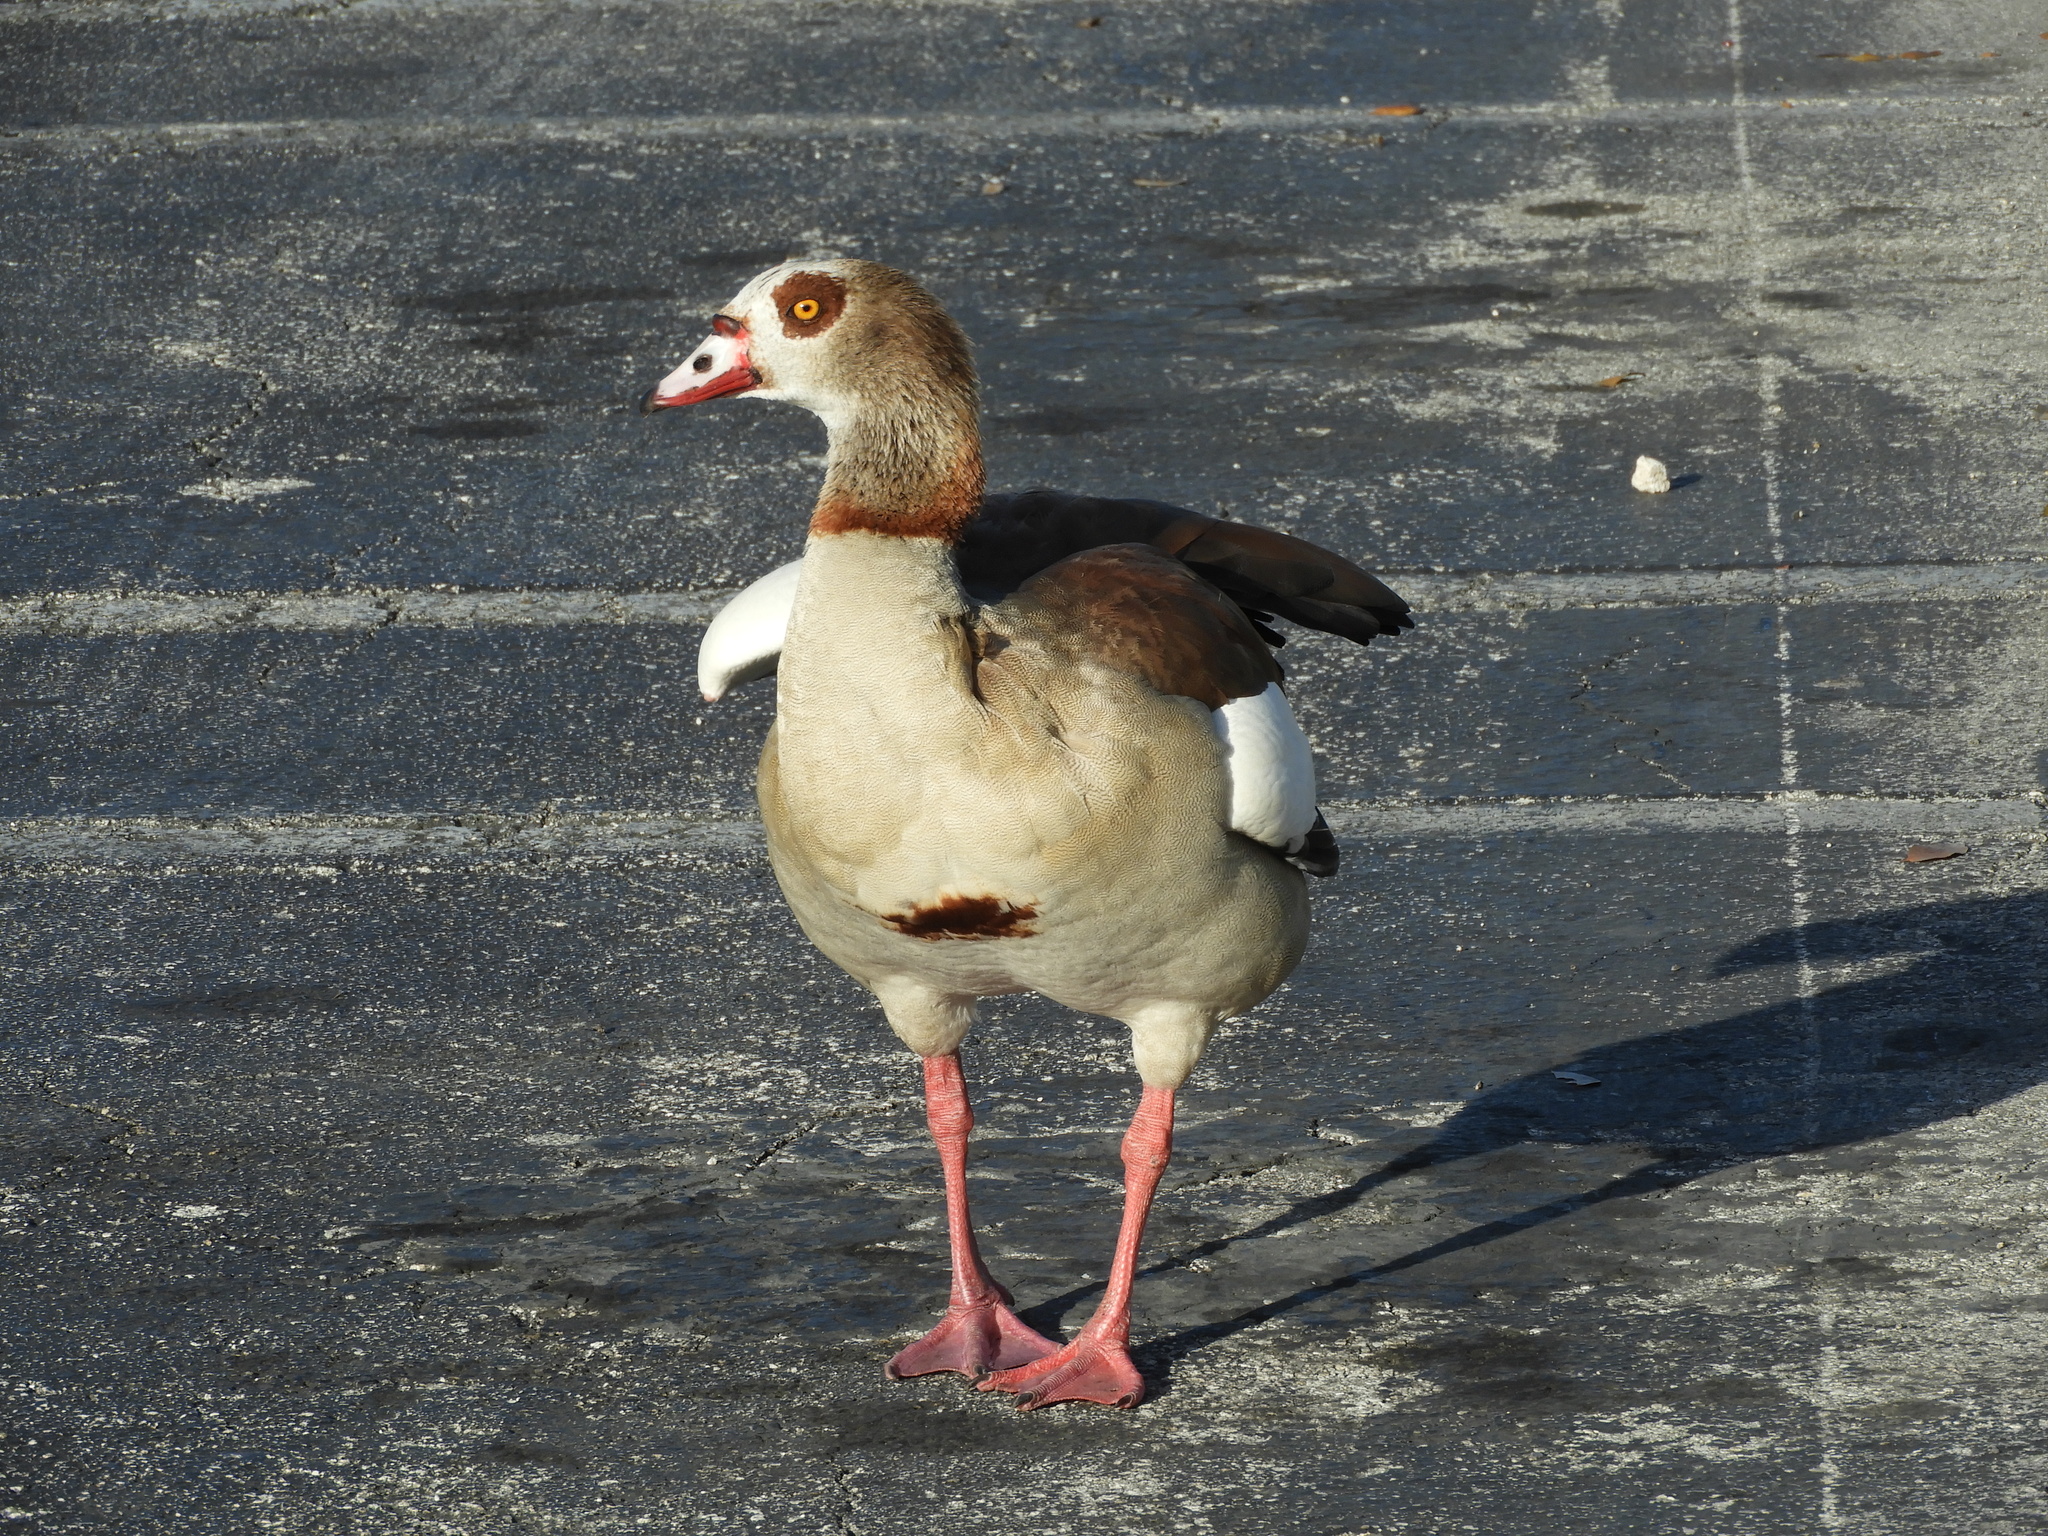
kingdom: Animalia
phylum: Chordata
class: Aves
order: Anseriformes
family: Anatidae
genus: Alopochen
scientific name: Alopochen aegyptiaca
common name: Egyptian goose
